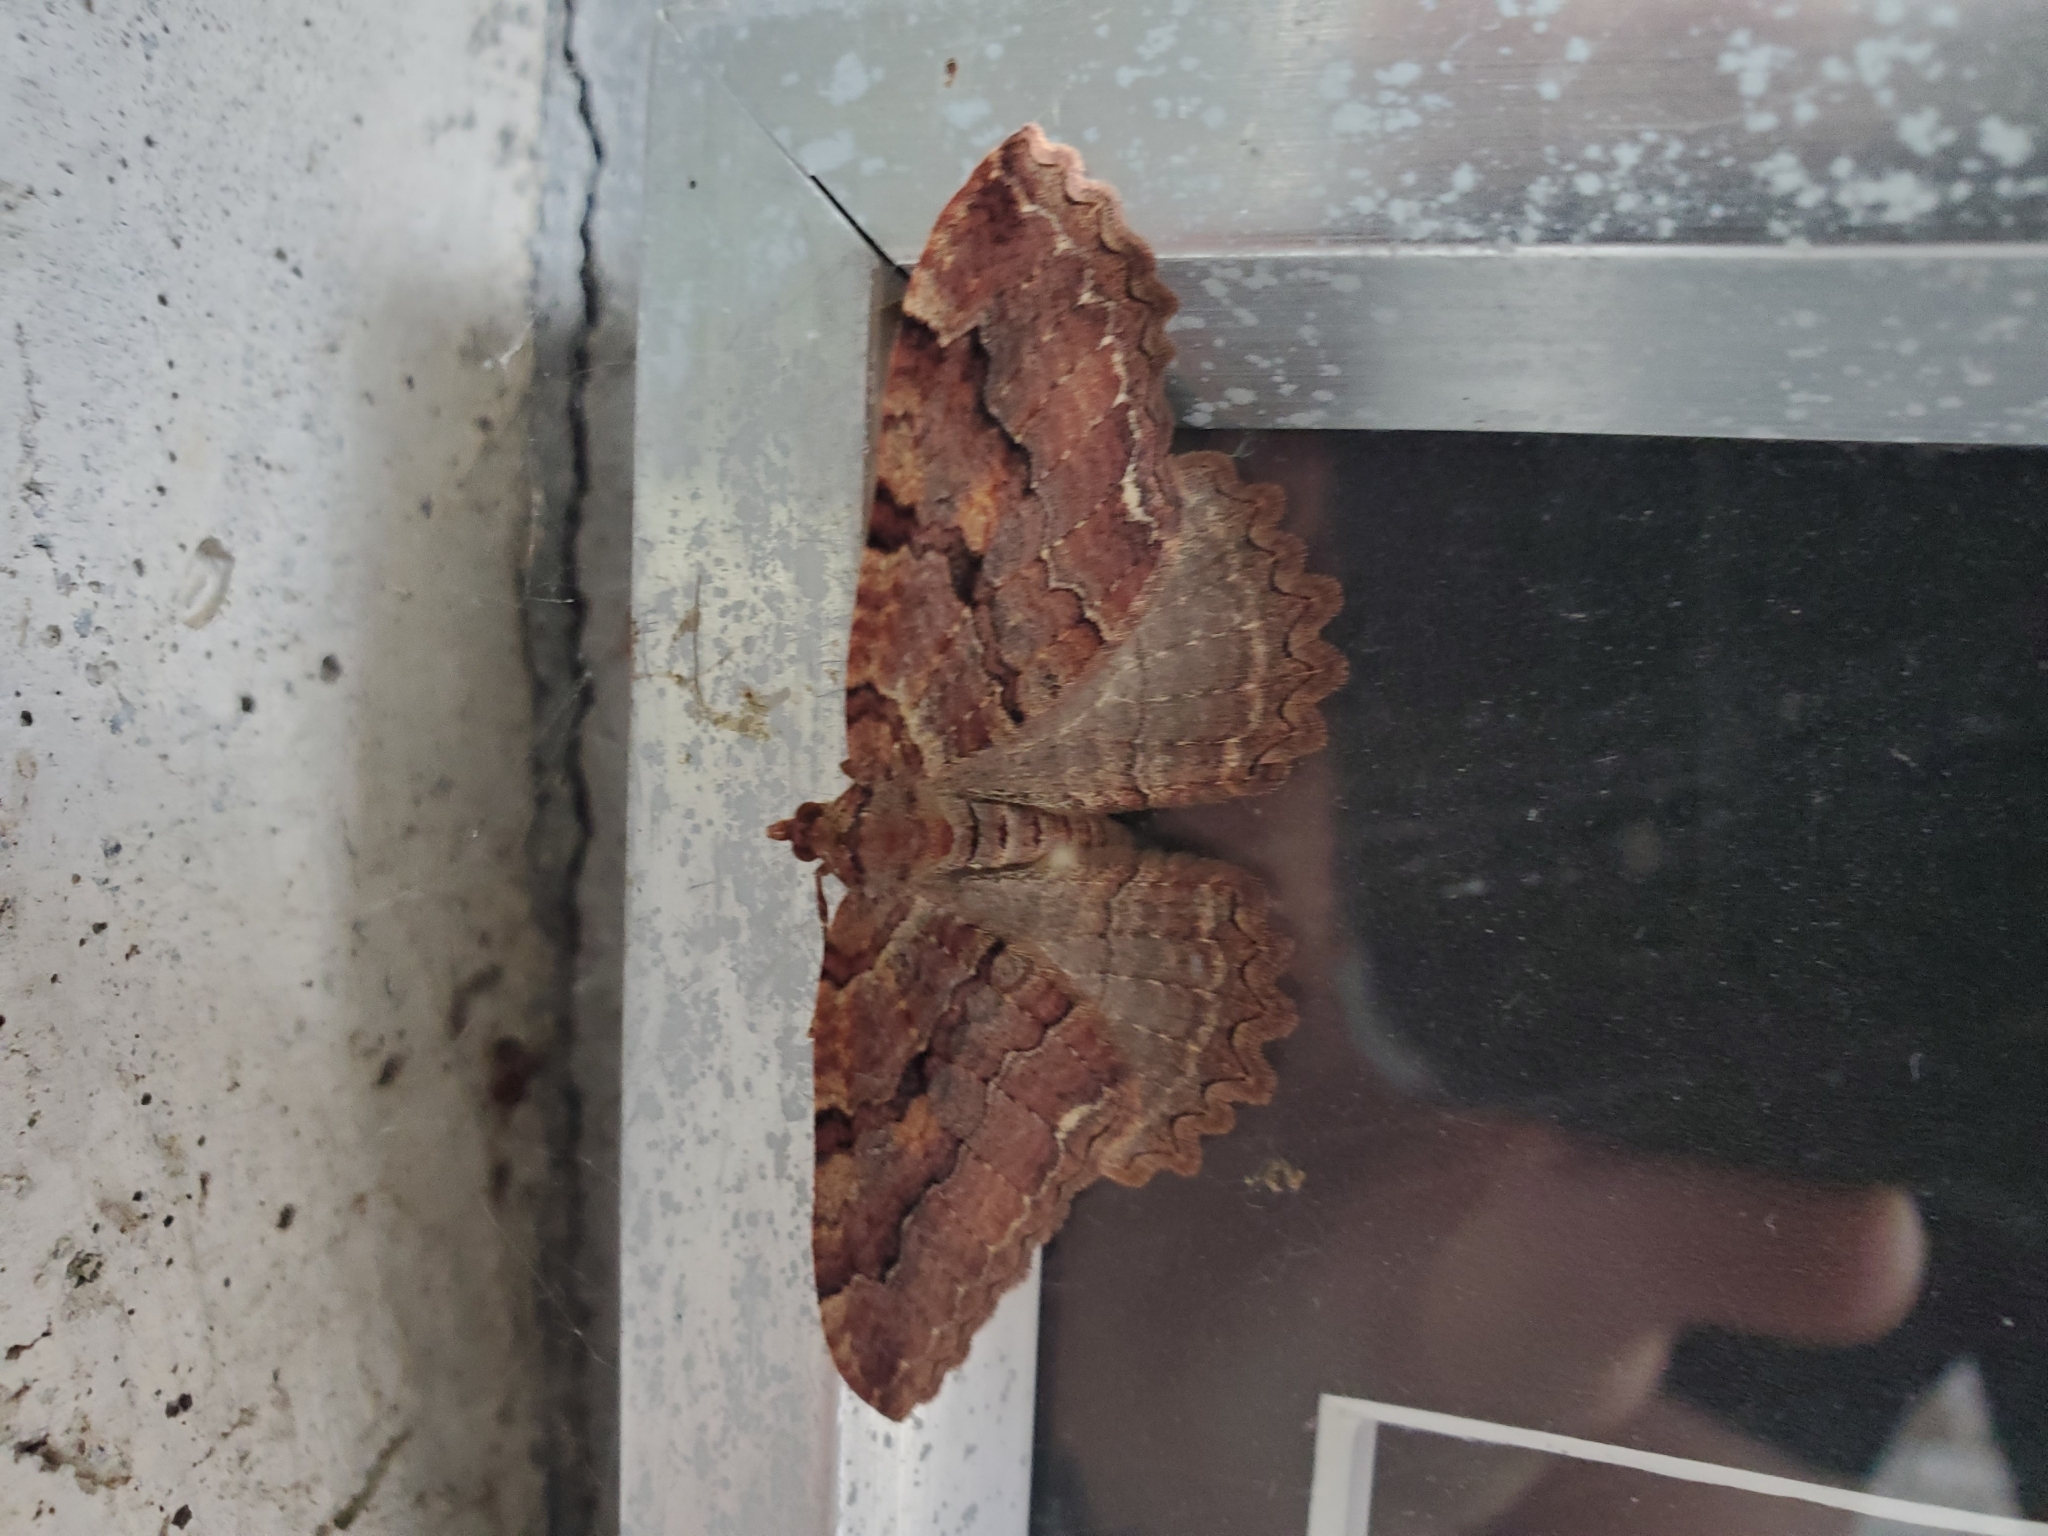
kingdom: Animalia
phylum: Arthropoda
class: Insecta
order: Lepidoptera
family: Geometridae
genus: Triphosa
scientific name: Triphosa haesitata
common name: Tissue moth
